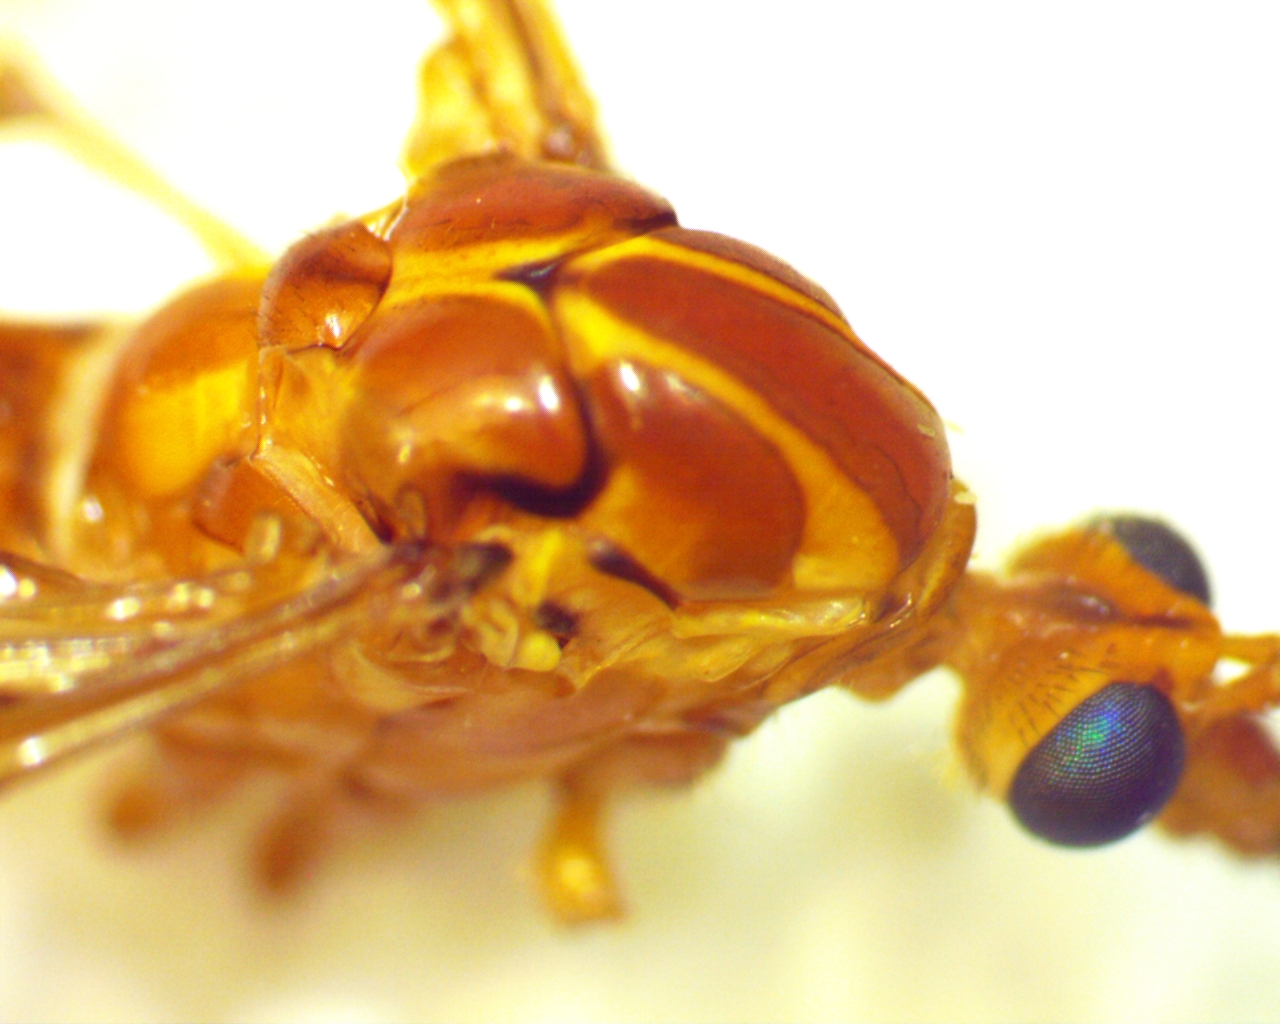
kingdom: Animalia
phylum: Arthropoda
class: Insecta
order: Diptera
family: Tipulidae
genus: Nephrotoma
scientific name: Nephrotoma ferruginea
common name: Ferruginous tiger crane fly
